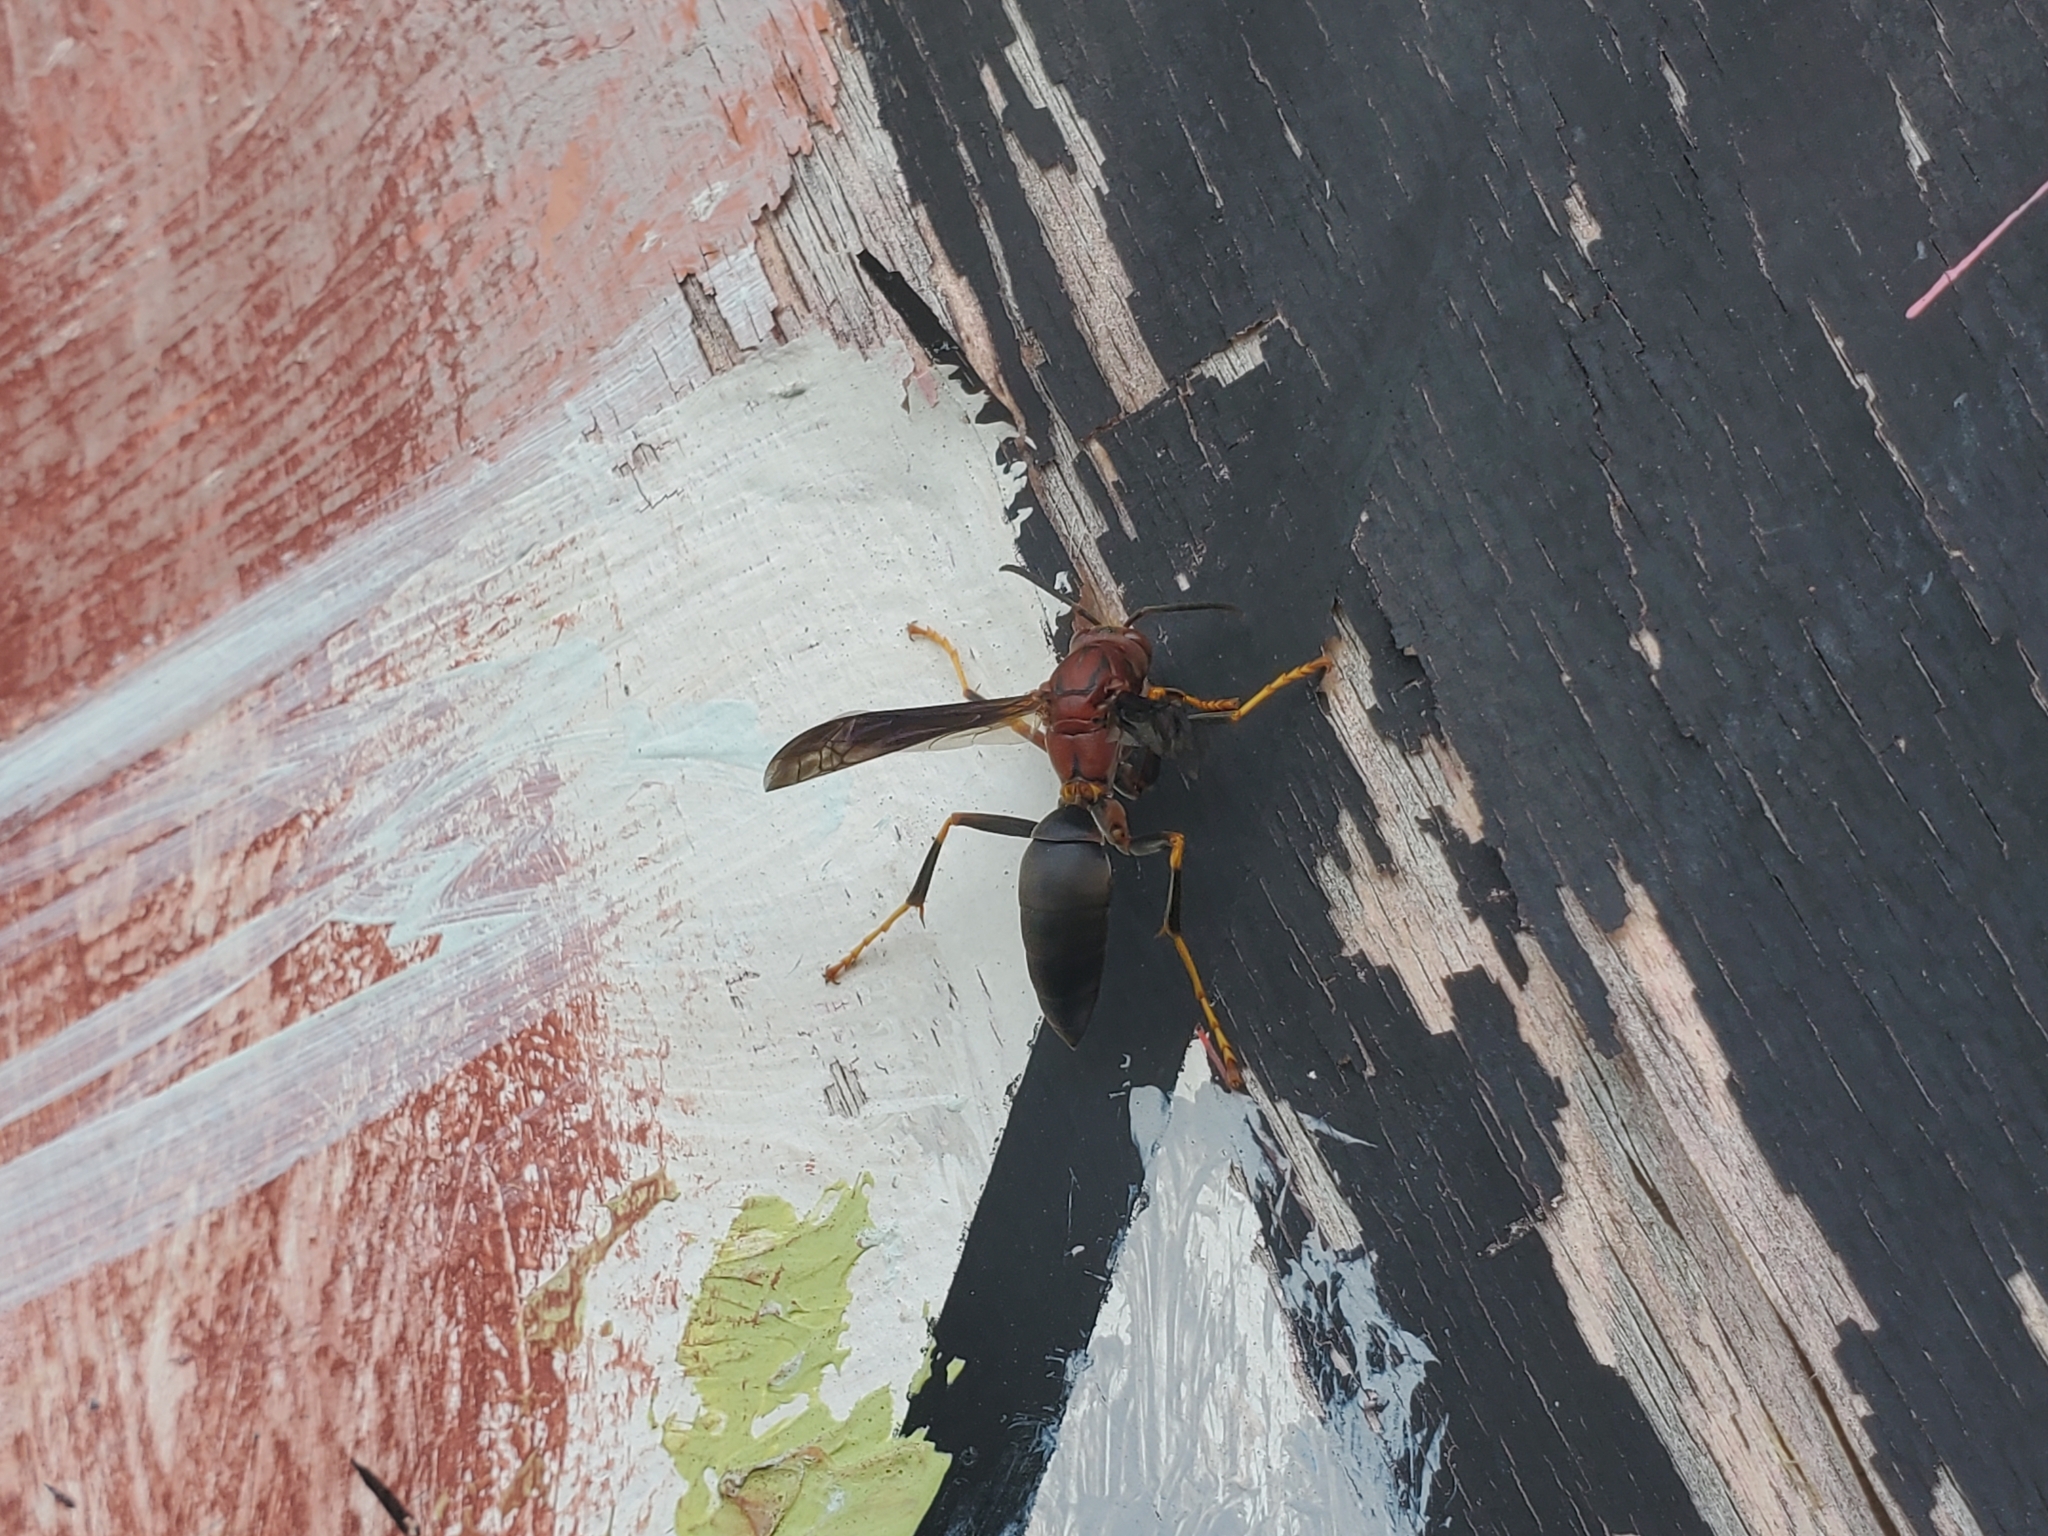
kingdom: Animalia
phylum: Arthropoda
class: Insecta
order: Hymenoptera
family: Eumenidae
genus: Polistes
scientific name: Polistes metricus
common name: Metric paper wasp
